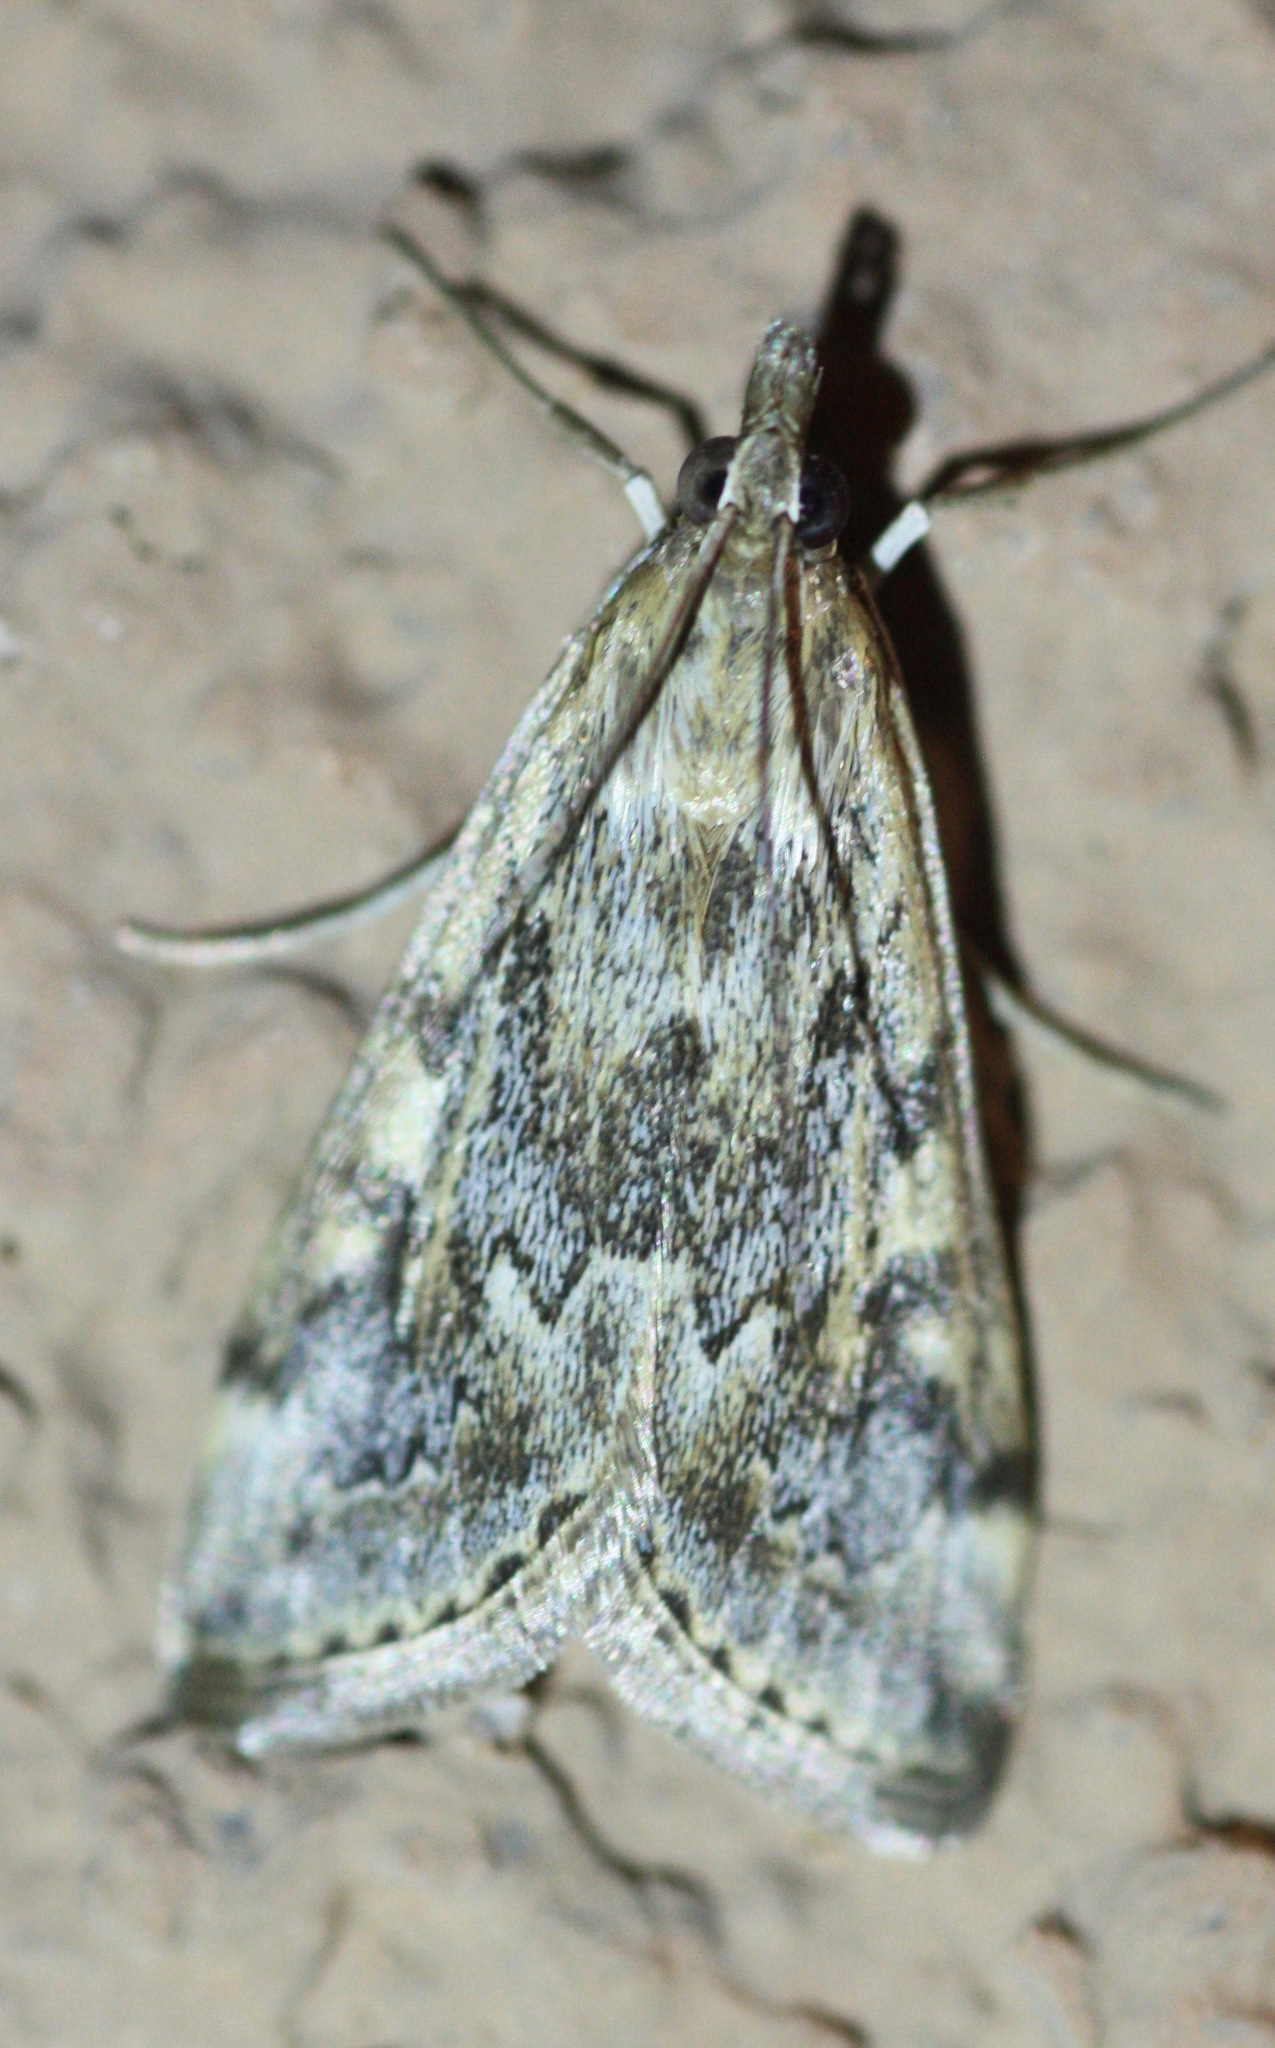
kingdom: Animalia
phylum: Arthropoda
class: Insecta
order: Lepidoptera
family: Crambidae
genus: Loxostege
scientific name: Loxostege allectalis
